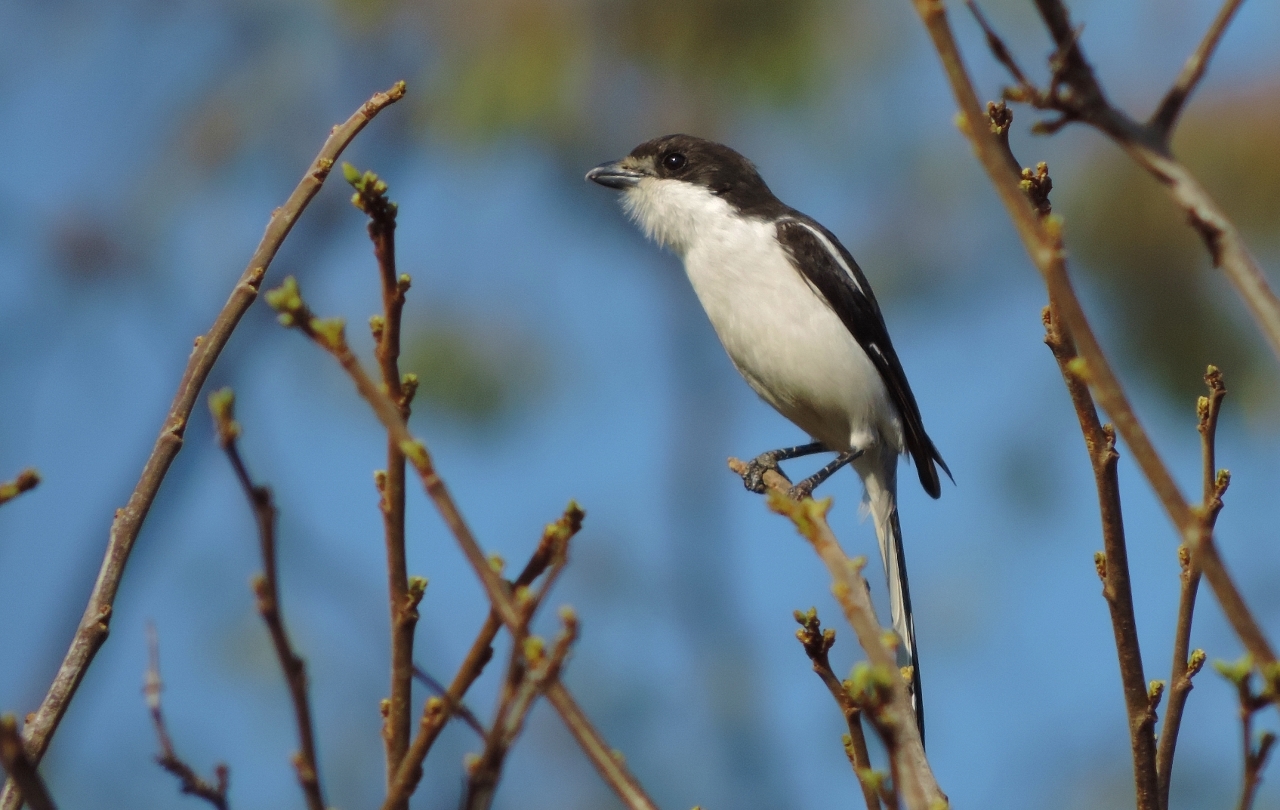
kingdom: Animalia
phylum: Chordata
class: Aves
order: Passeriformes
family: Laniidae
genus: Lanius
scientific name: Lanius collaris
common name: Southern fiscal
